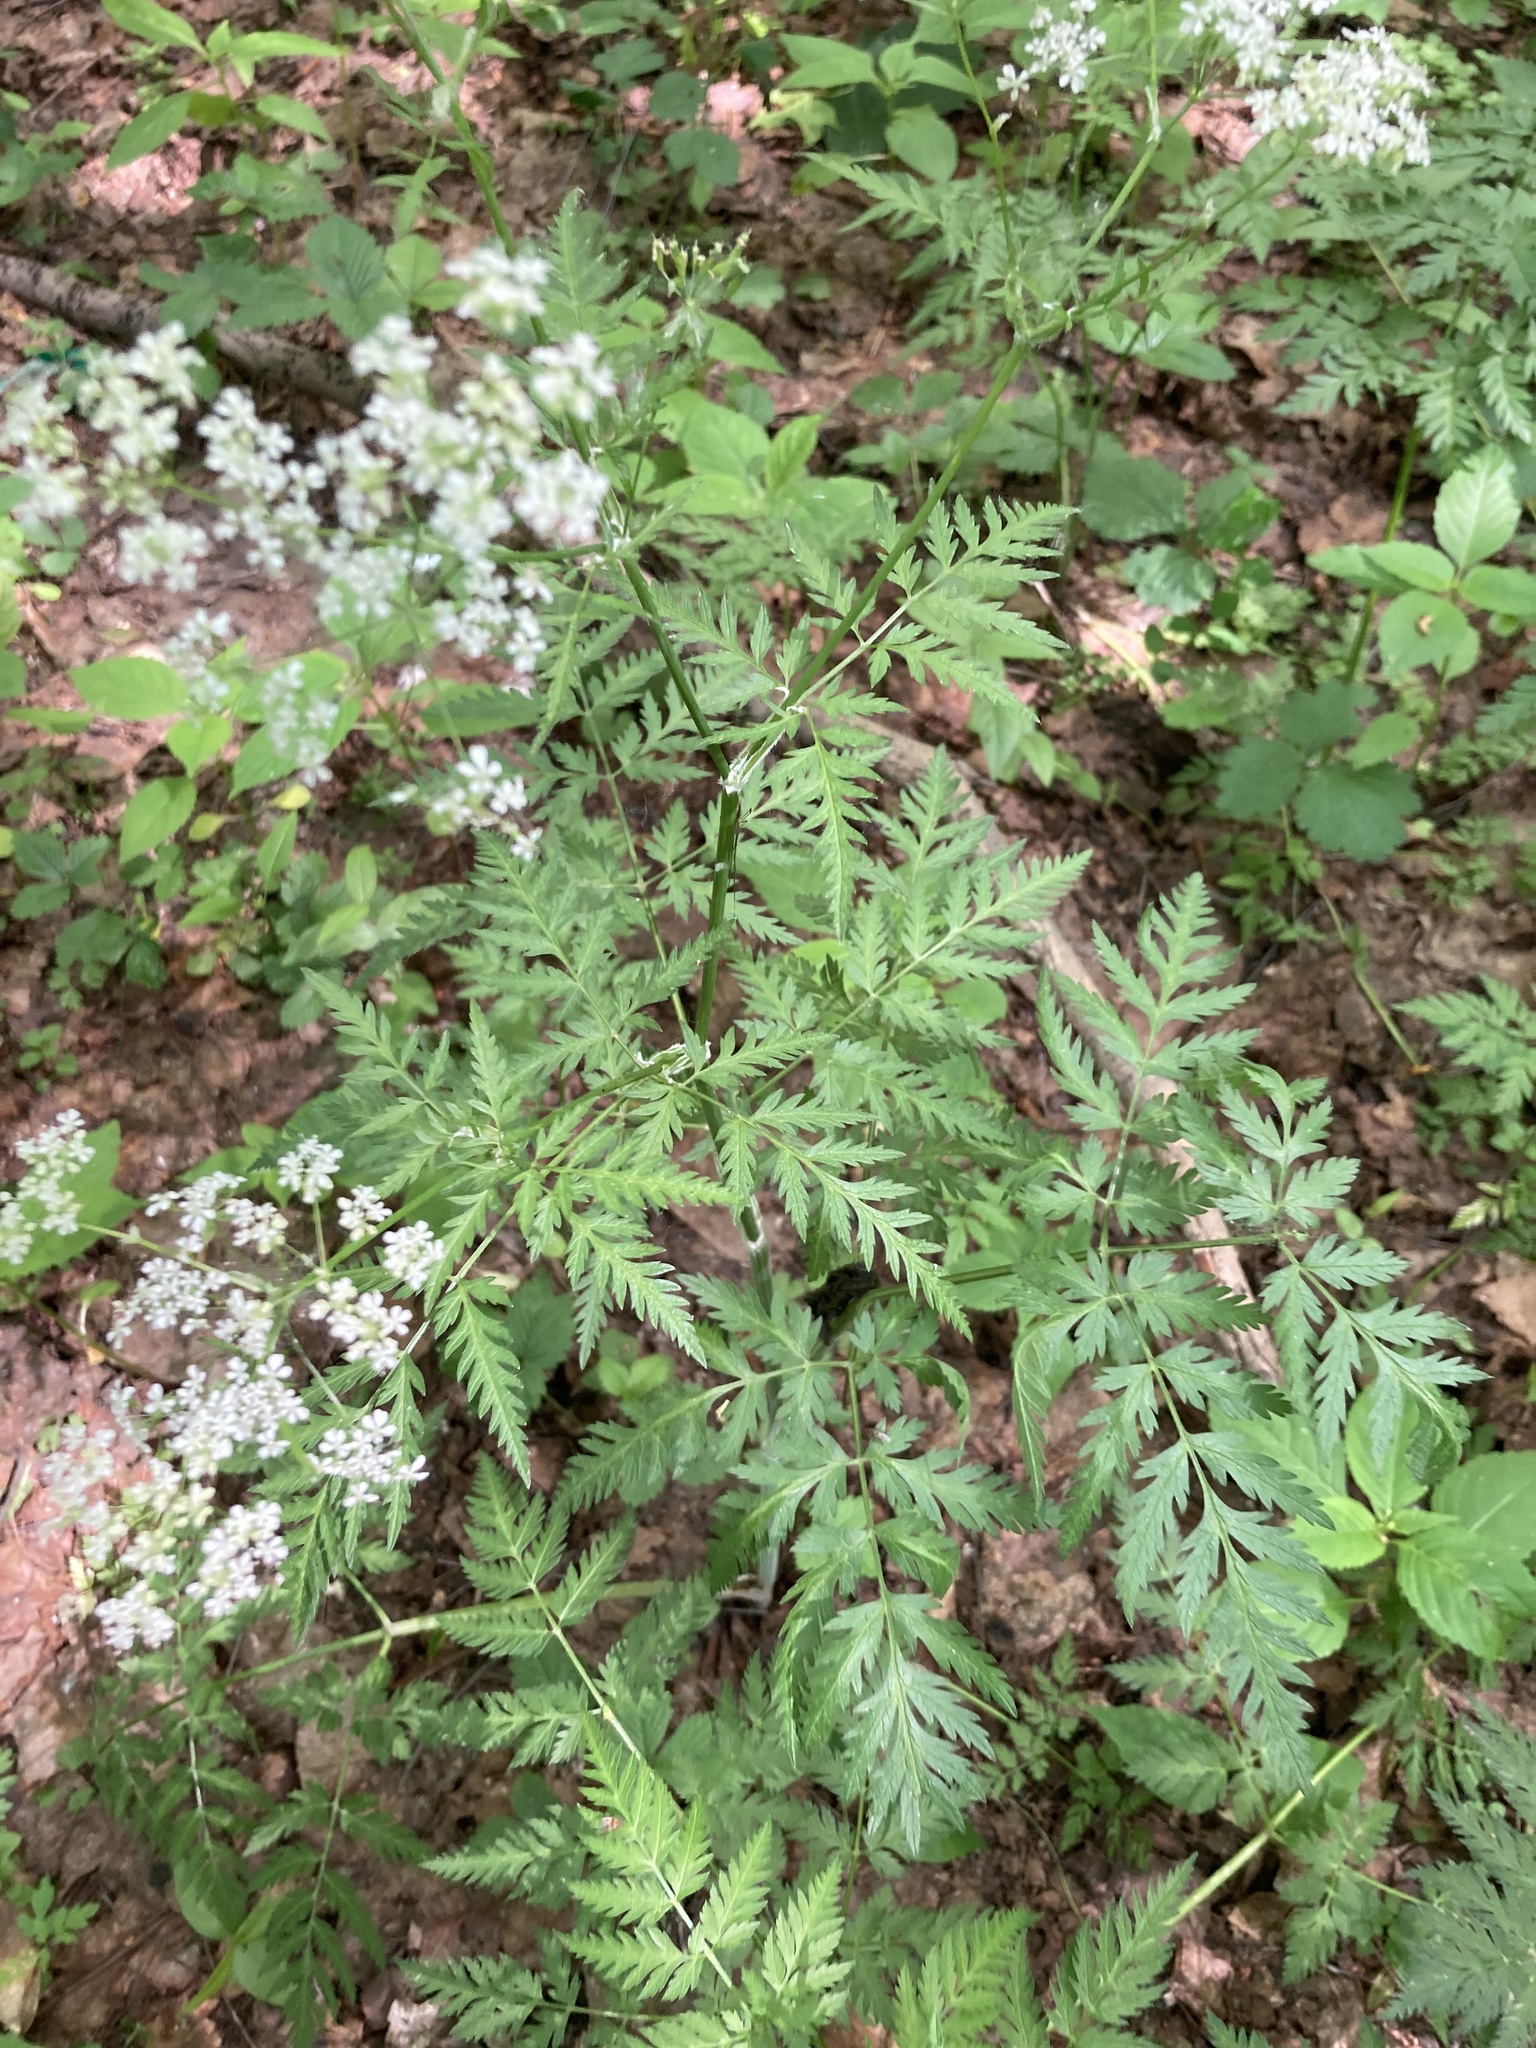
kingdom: Plantae
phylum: Tracheophyta
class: Magnoliopsida
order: Apiales
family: Apiaceae
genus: Anthriscus
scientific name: Anthriscus sylvestris
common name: Cow parsley
